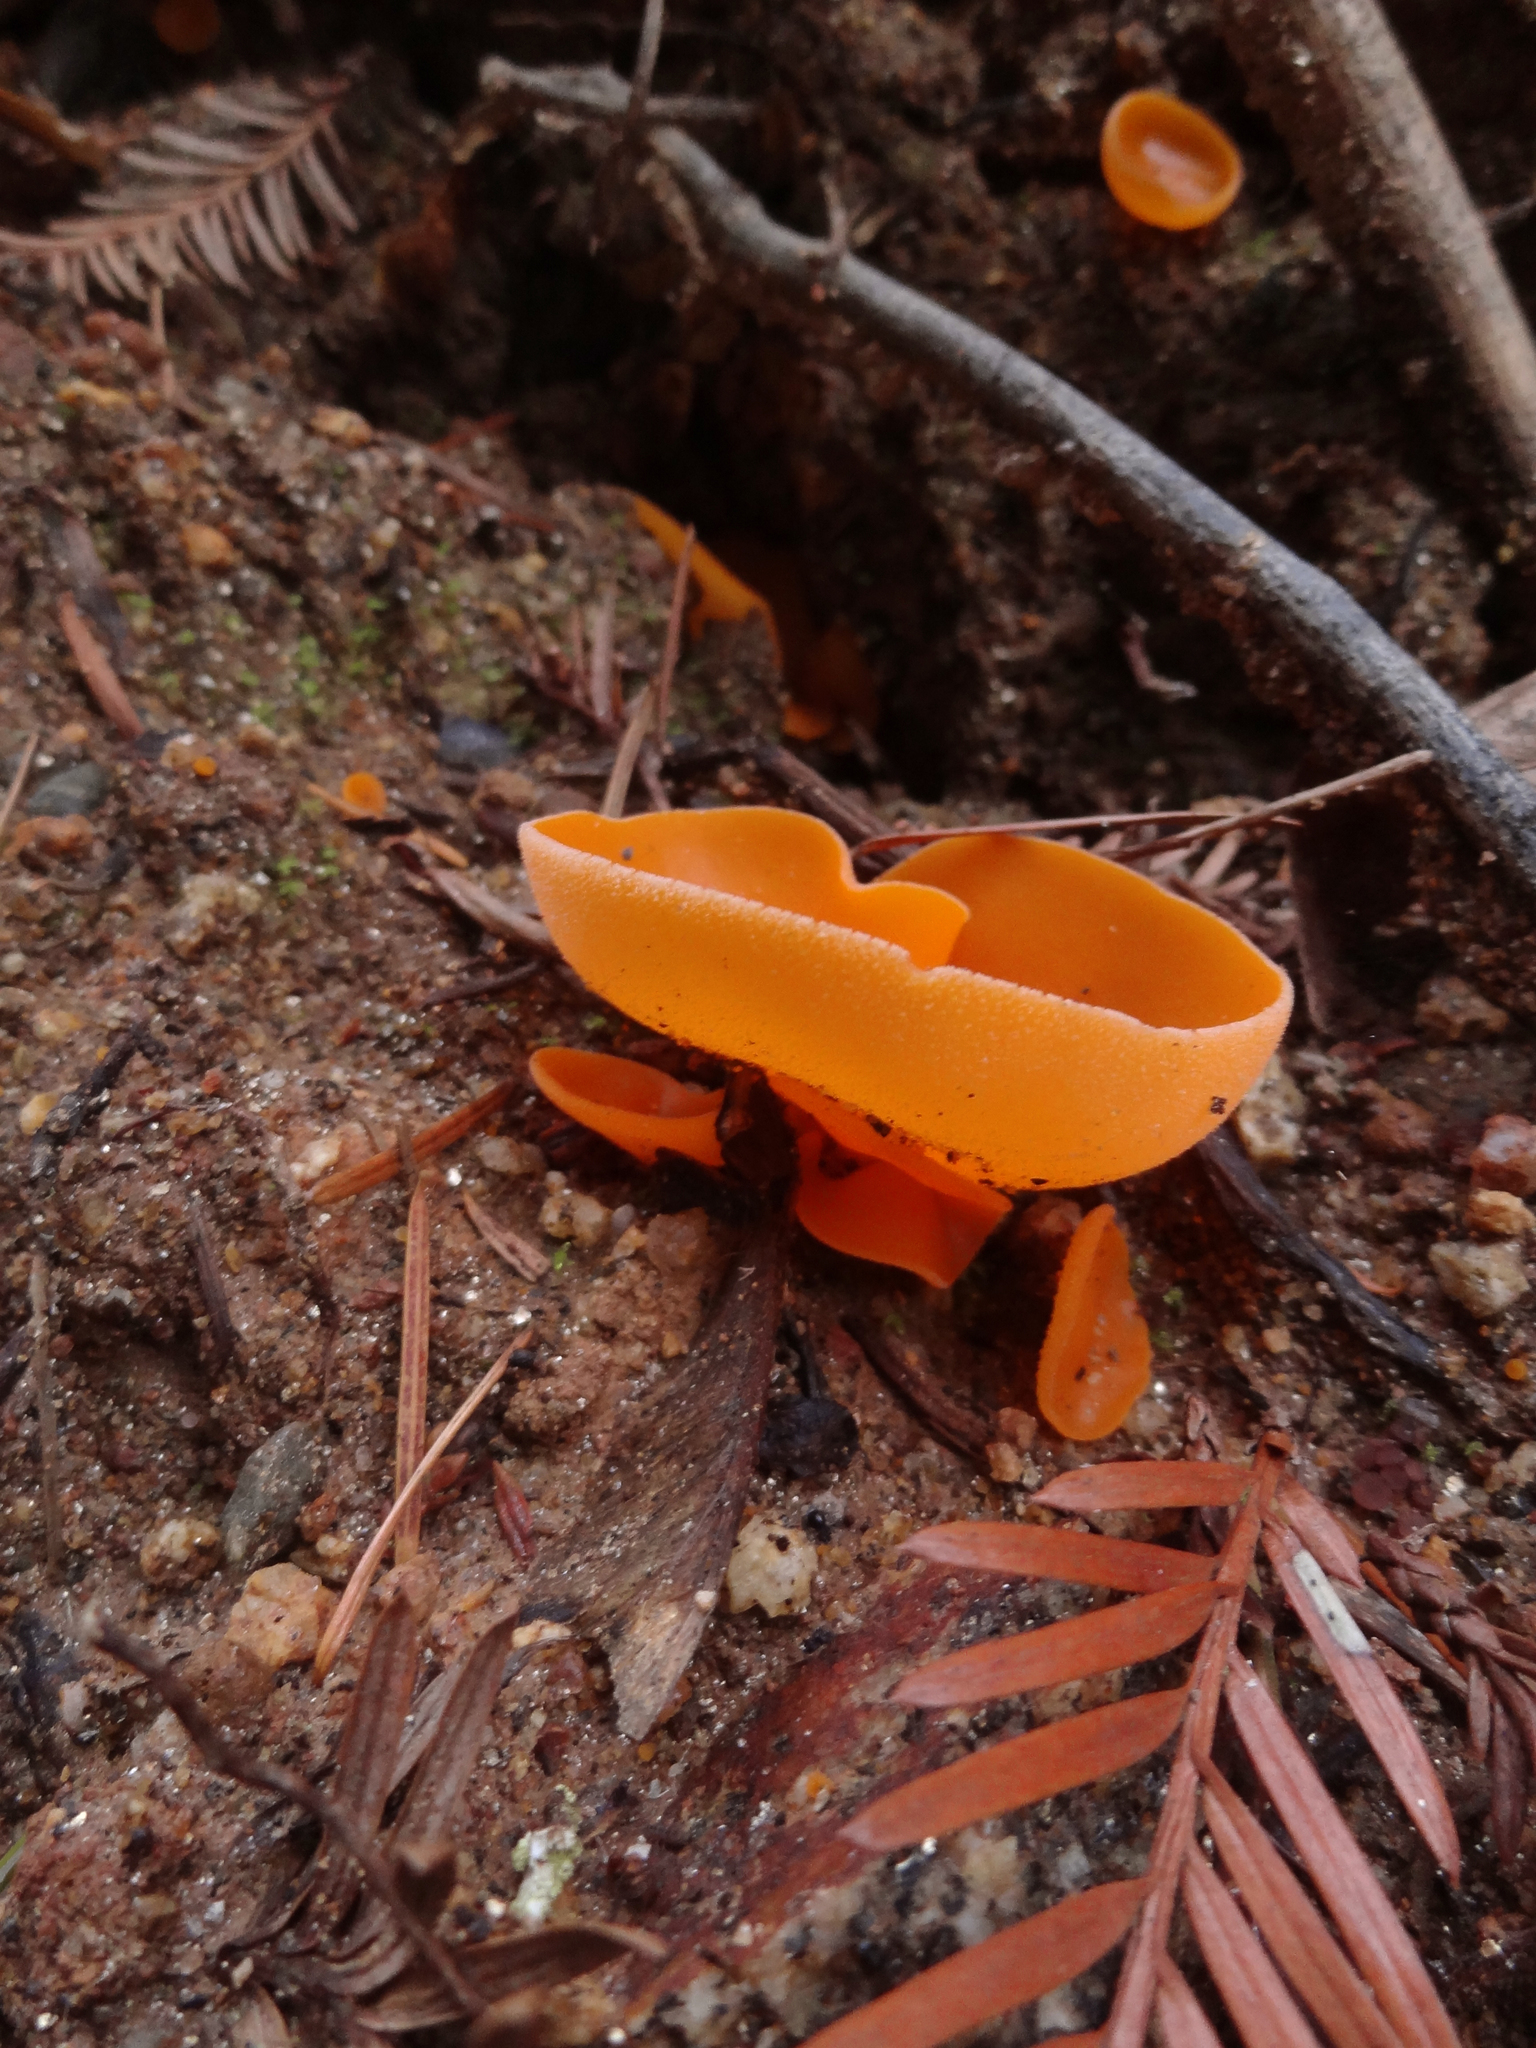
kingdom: Fungi
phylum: Ascomycota
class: Pezizomycetes
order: Pezizales
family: Pyronemataceae
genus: Aleuria
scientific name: Aleuria aurantia
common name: Orange peel fungus
